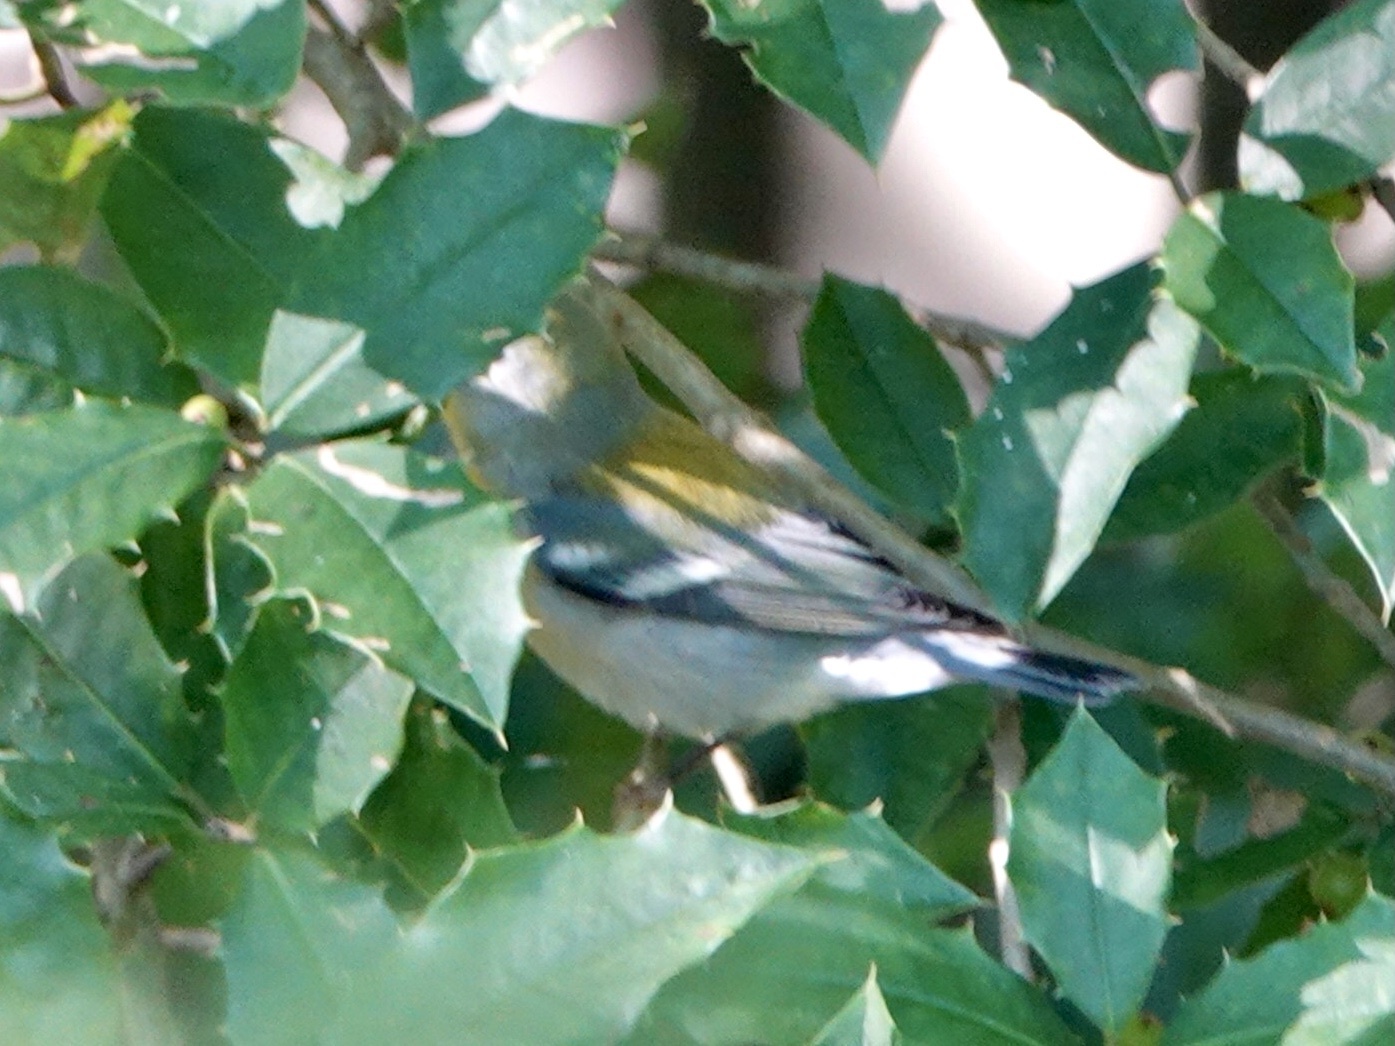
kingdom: Animalia
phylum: Chordata
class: Aves
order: Passeriformes
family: Parulidae
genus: Setophaga
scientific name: Setophaga americana
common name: Northern parula
